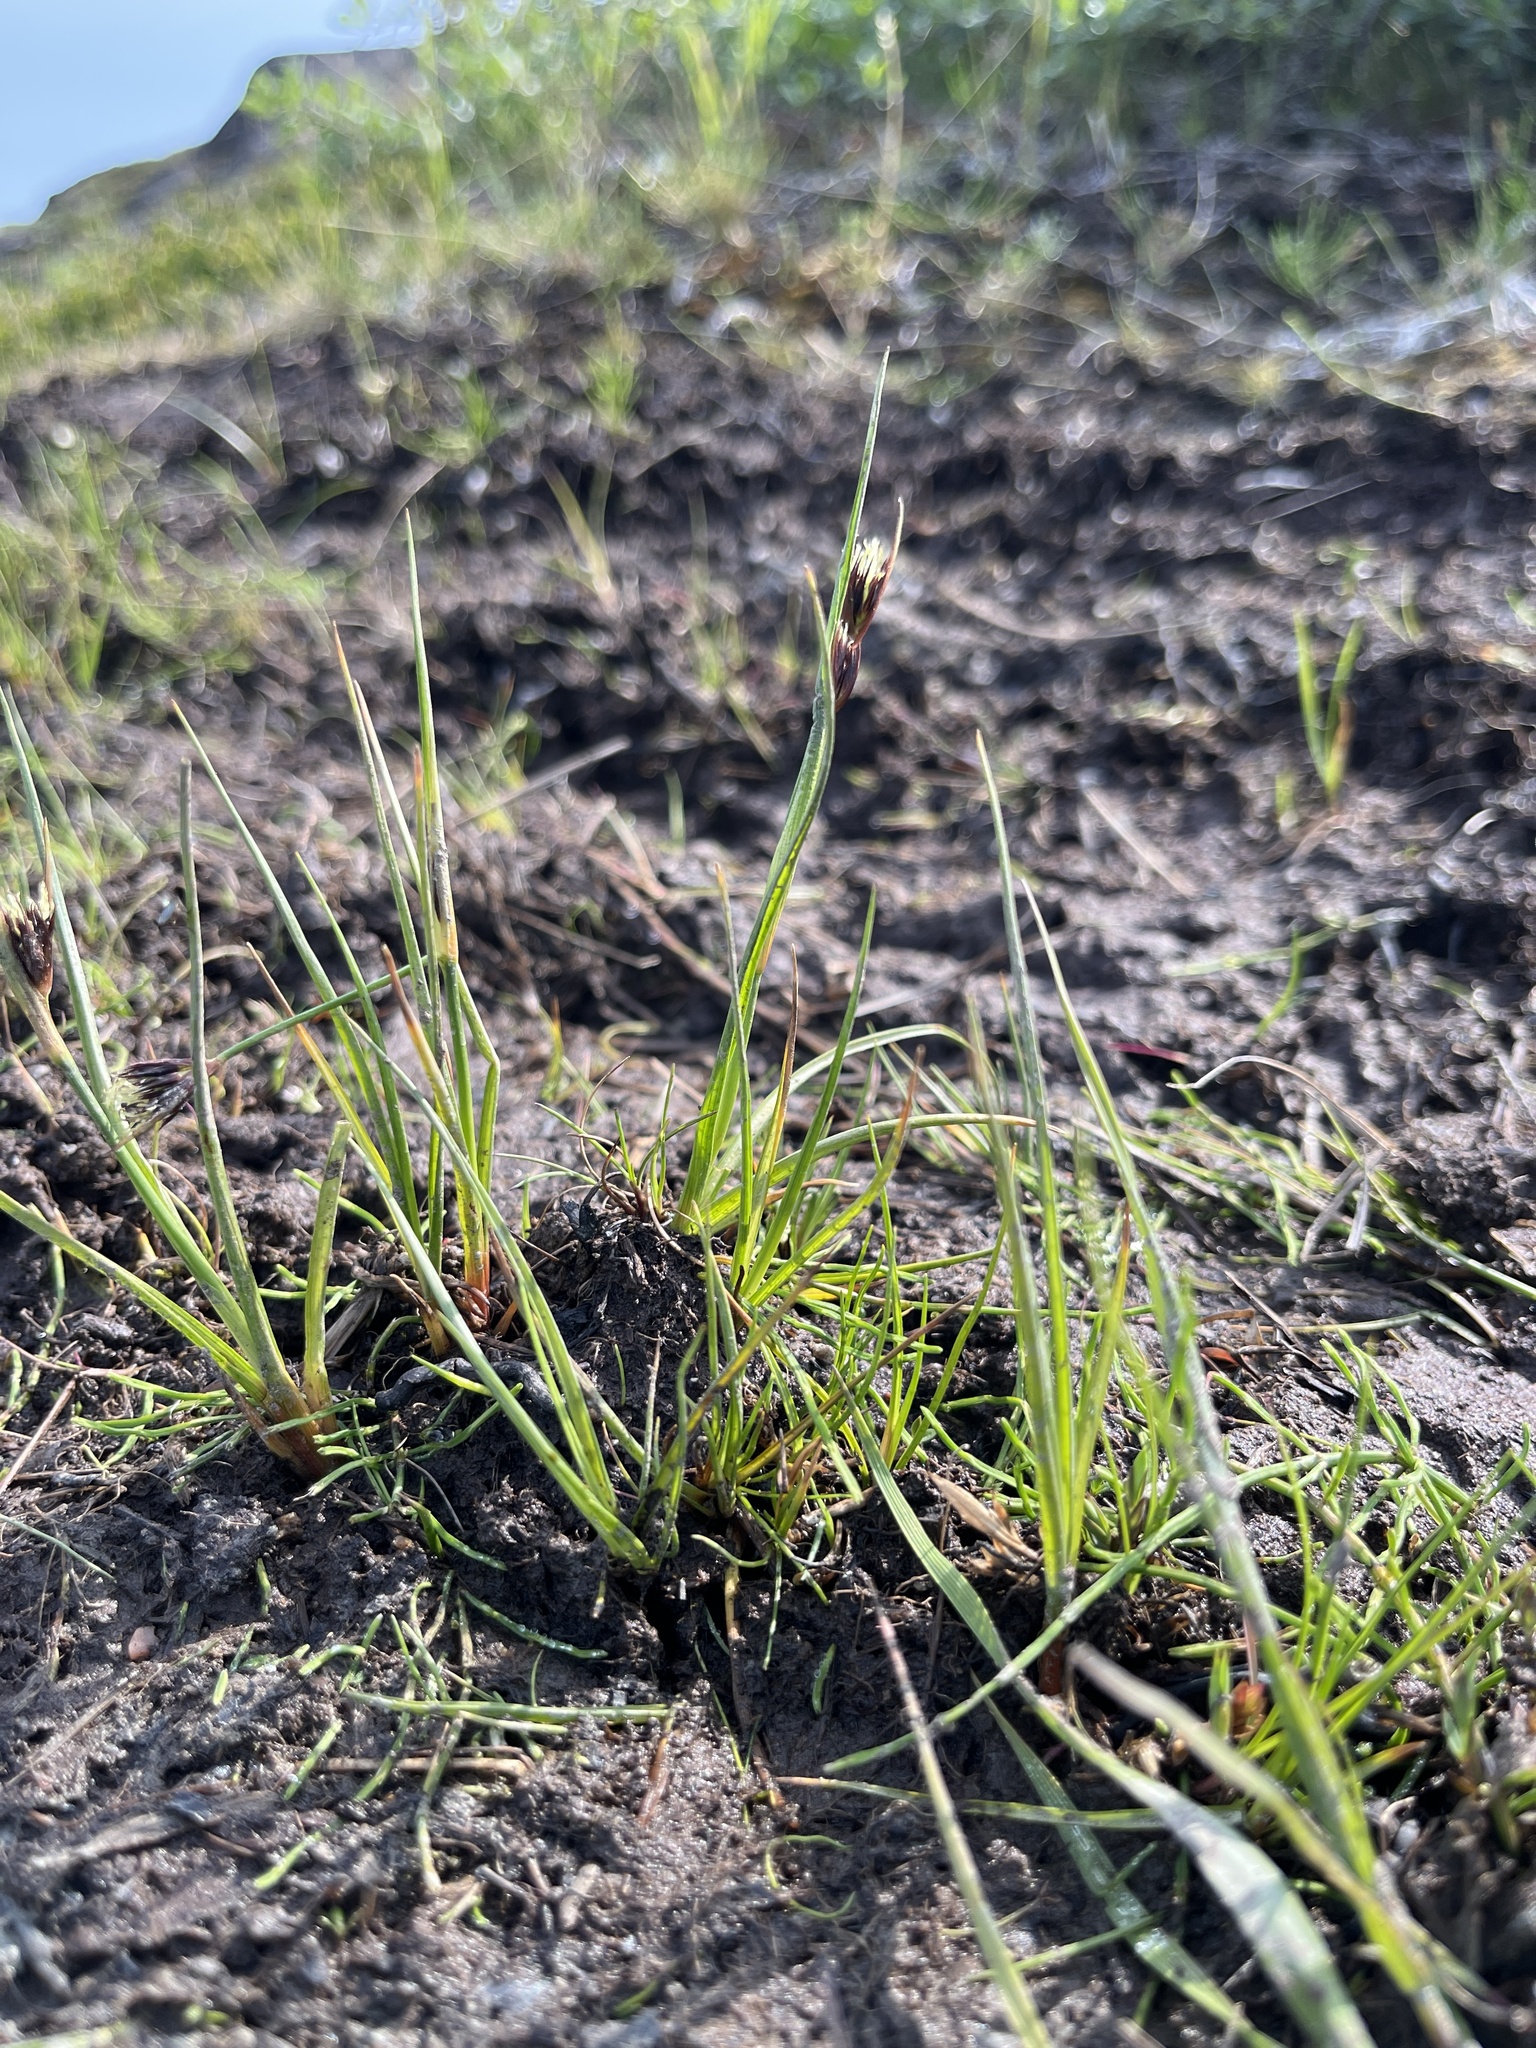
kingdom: Plantae
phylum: Tracheophyta
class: Liliopsida
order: Poales
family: Juncaceae
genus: Juncus
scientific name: Juncus castaneus
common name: Chestnut rush
